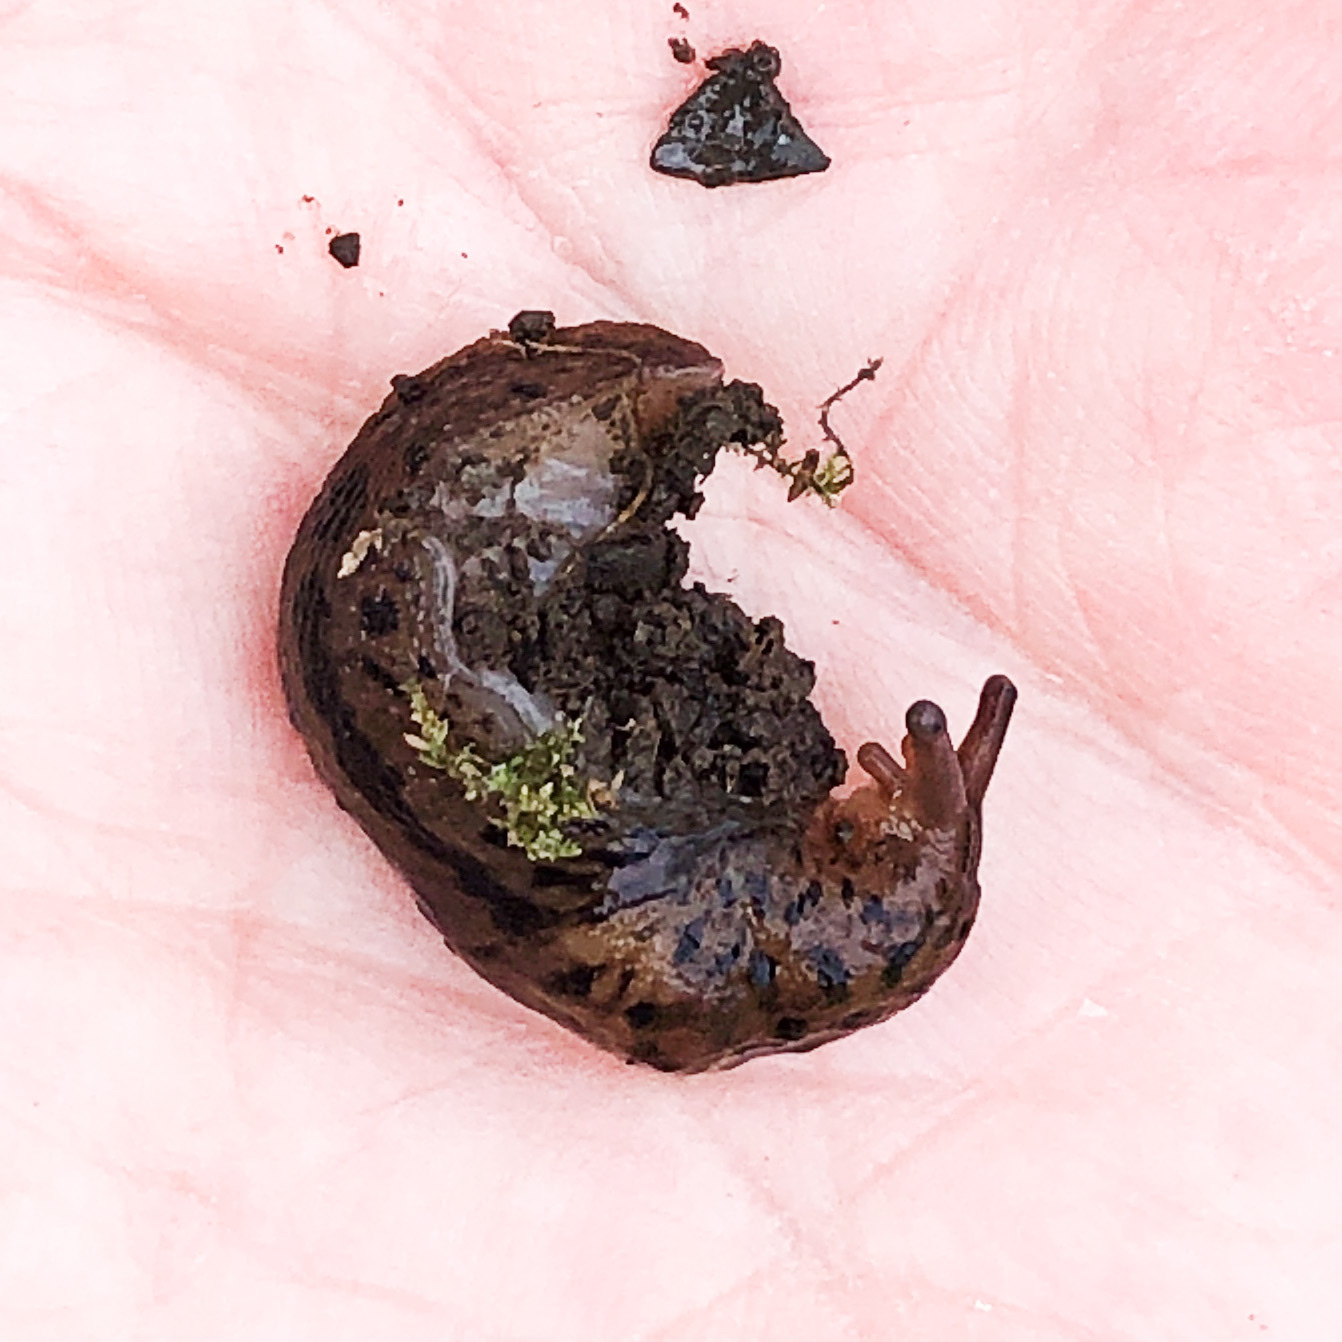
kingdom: Animalia
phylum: Mollusca
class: Gastropoda
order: Stylommatophora
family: Limacidae
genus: Limax
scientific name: Limax maximus
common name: Great grey slug
